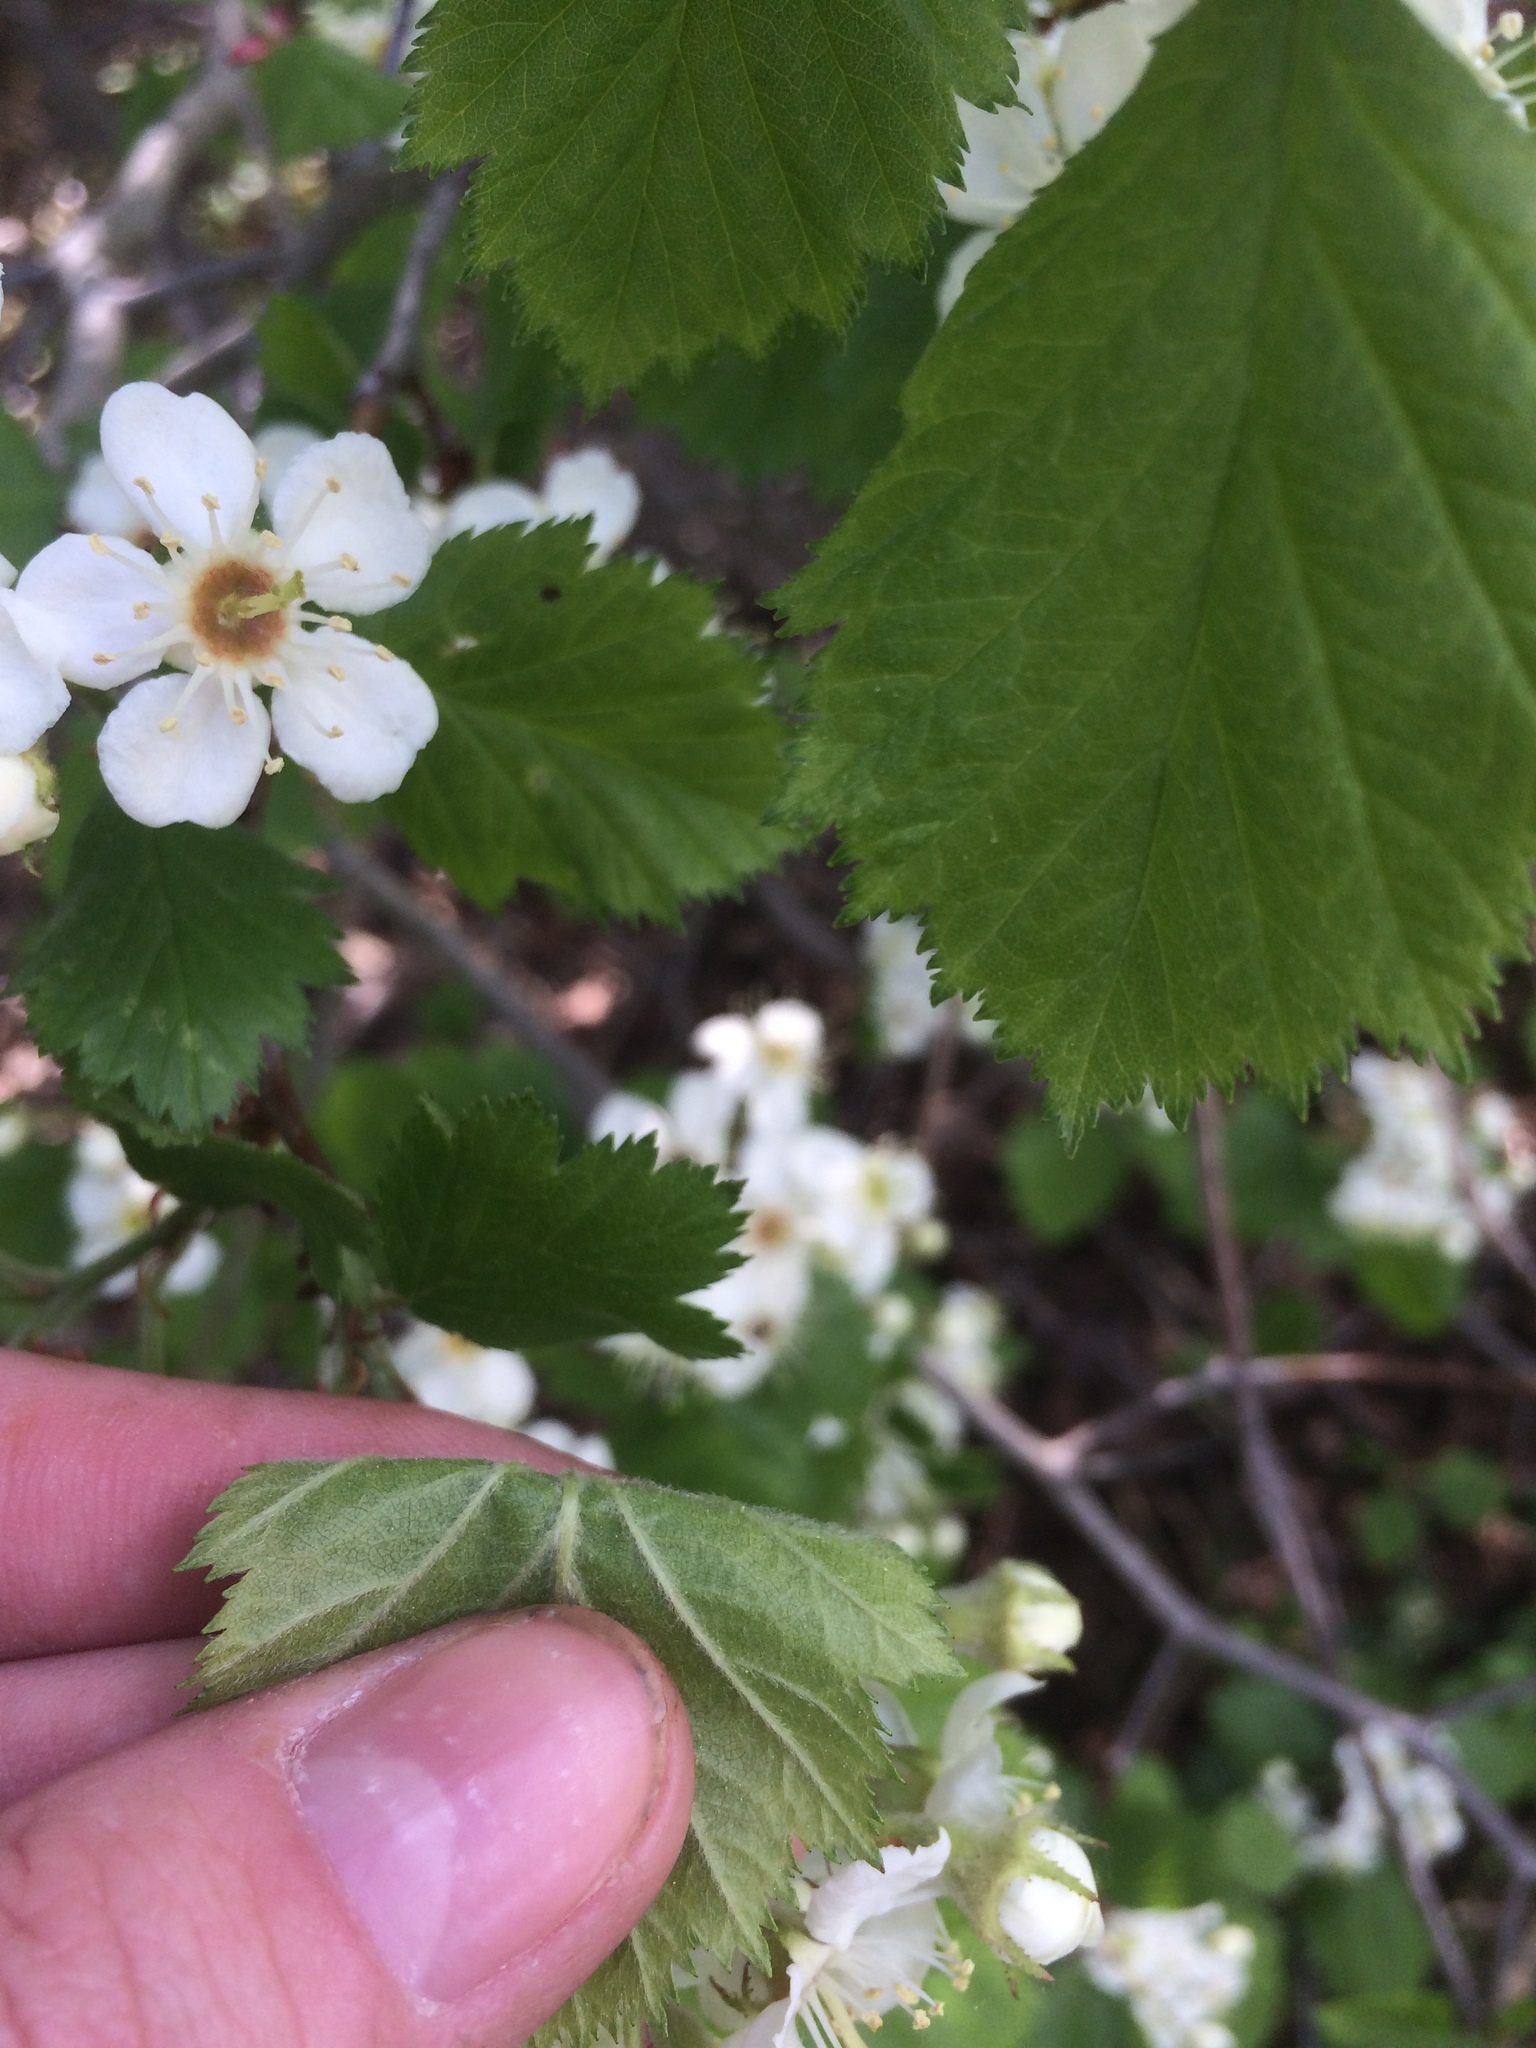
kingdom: Plantae
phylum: Tracheophyta
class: Magnoliopsida
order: Rosales
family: Rosaceae
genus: Crataegus
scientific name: Crataegus submollis
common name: Hairy cockspurthorn
